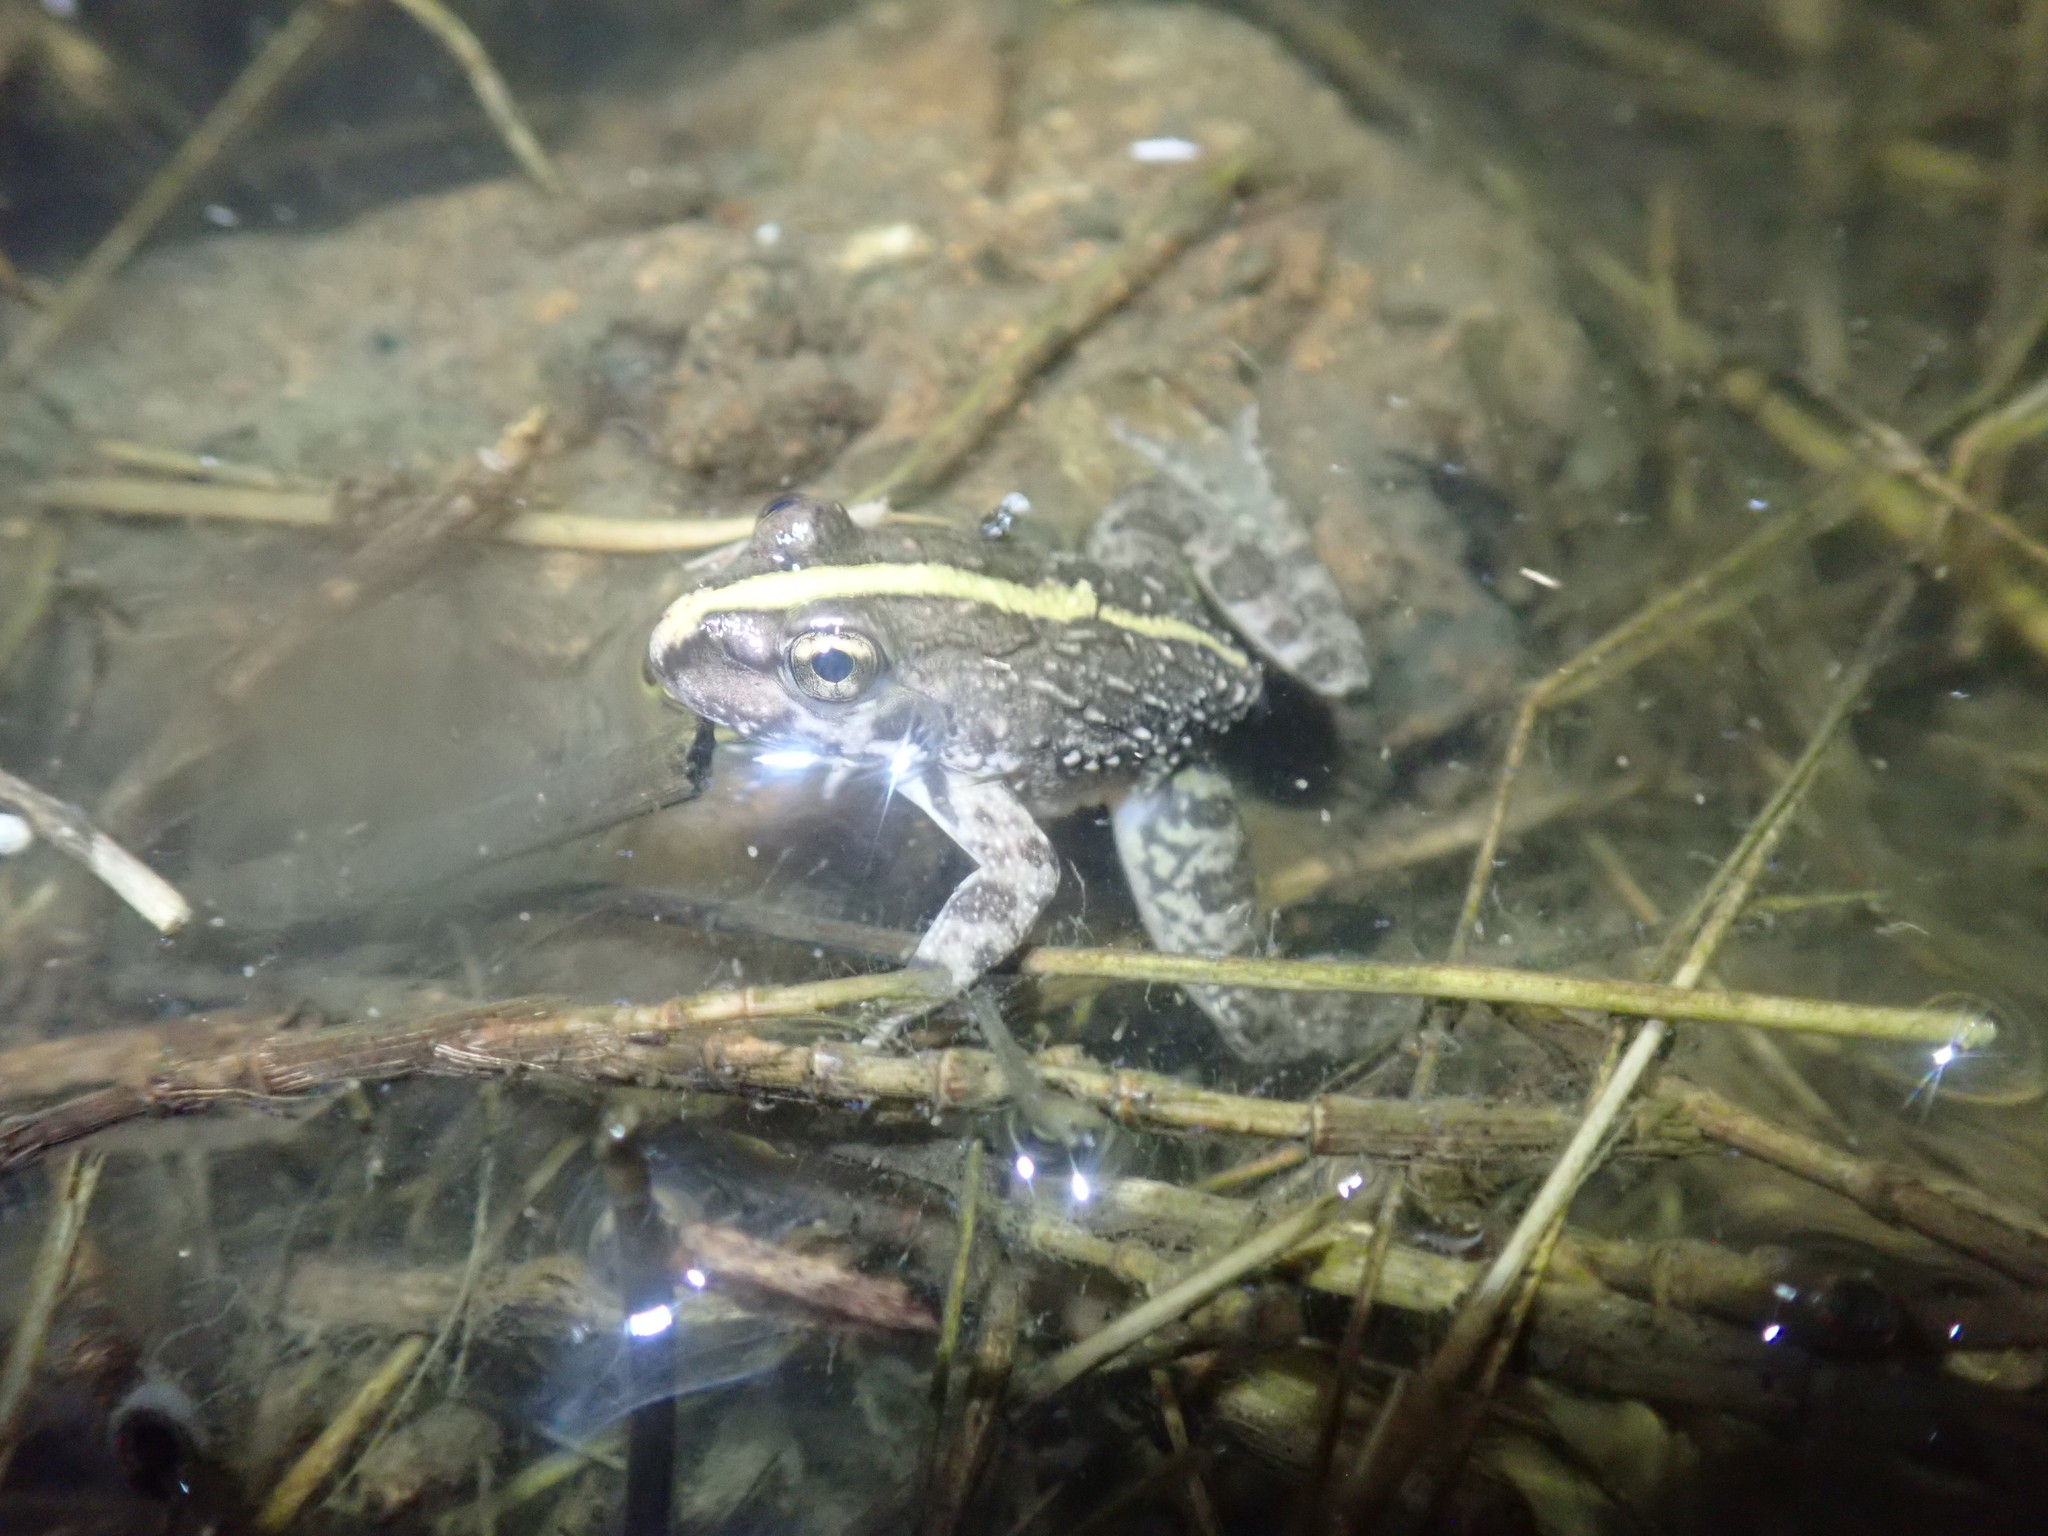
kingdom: Animalia
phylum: Chordata
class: Amphibia
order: Anura
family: Pyxicephalidae
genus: Amietia
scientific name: Amietia fuscigula
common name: Cape rana
